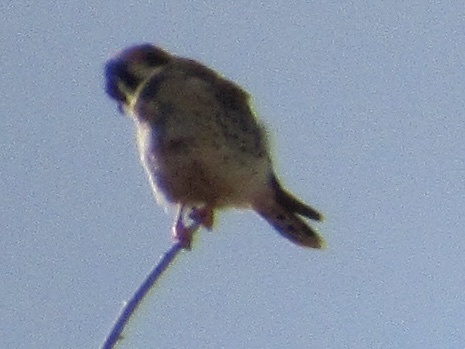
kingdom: Animalia
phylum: Chordata
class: Aves
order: Falconiformes
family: Falconidae
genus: Falco
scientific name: Falco sparverius
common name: American kestrel
